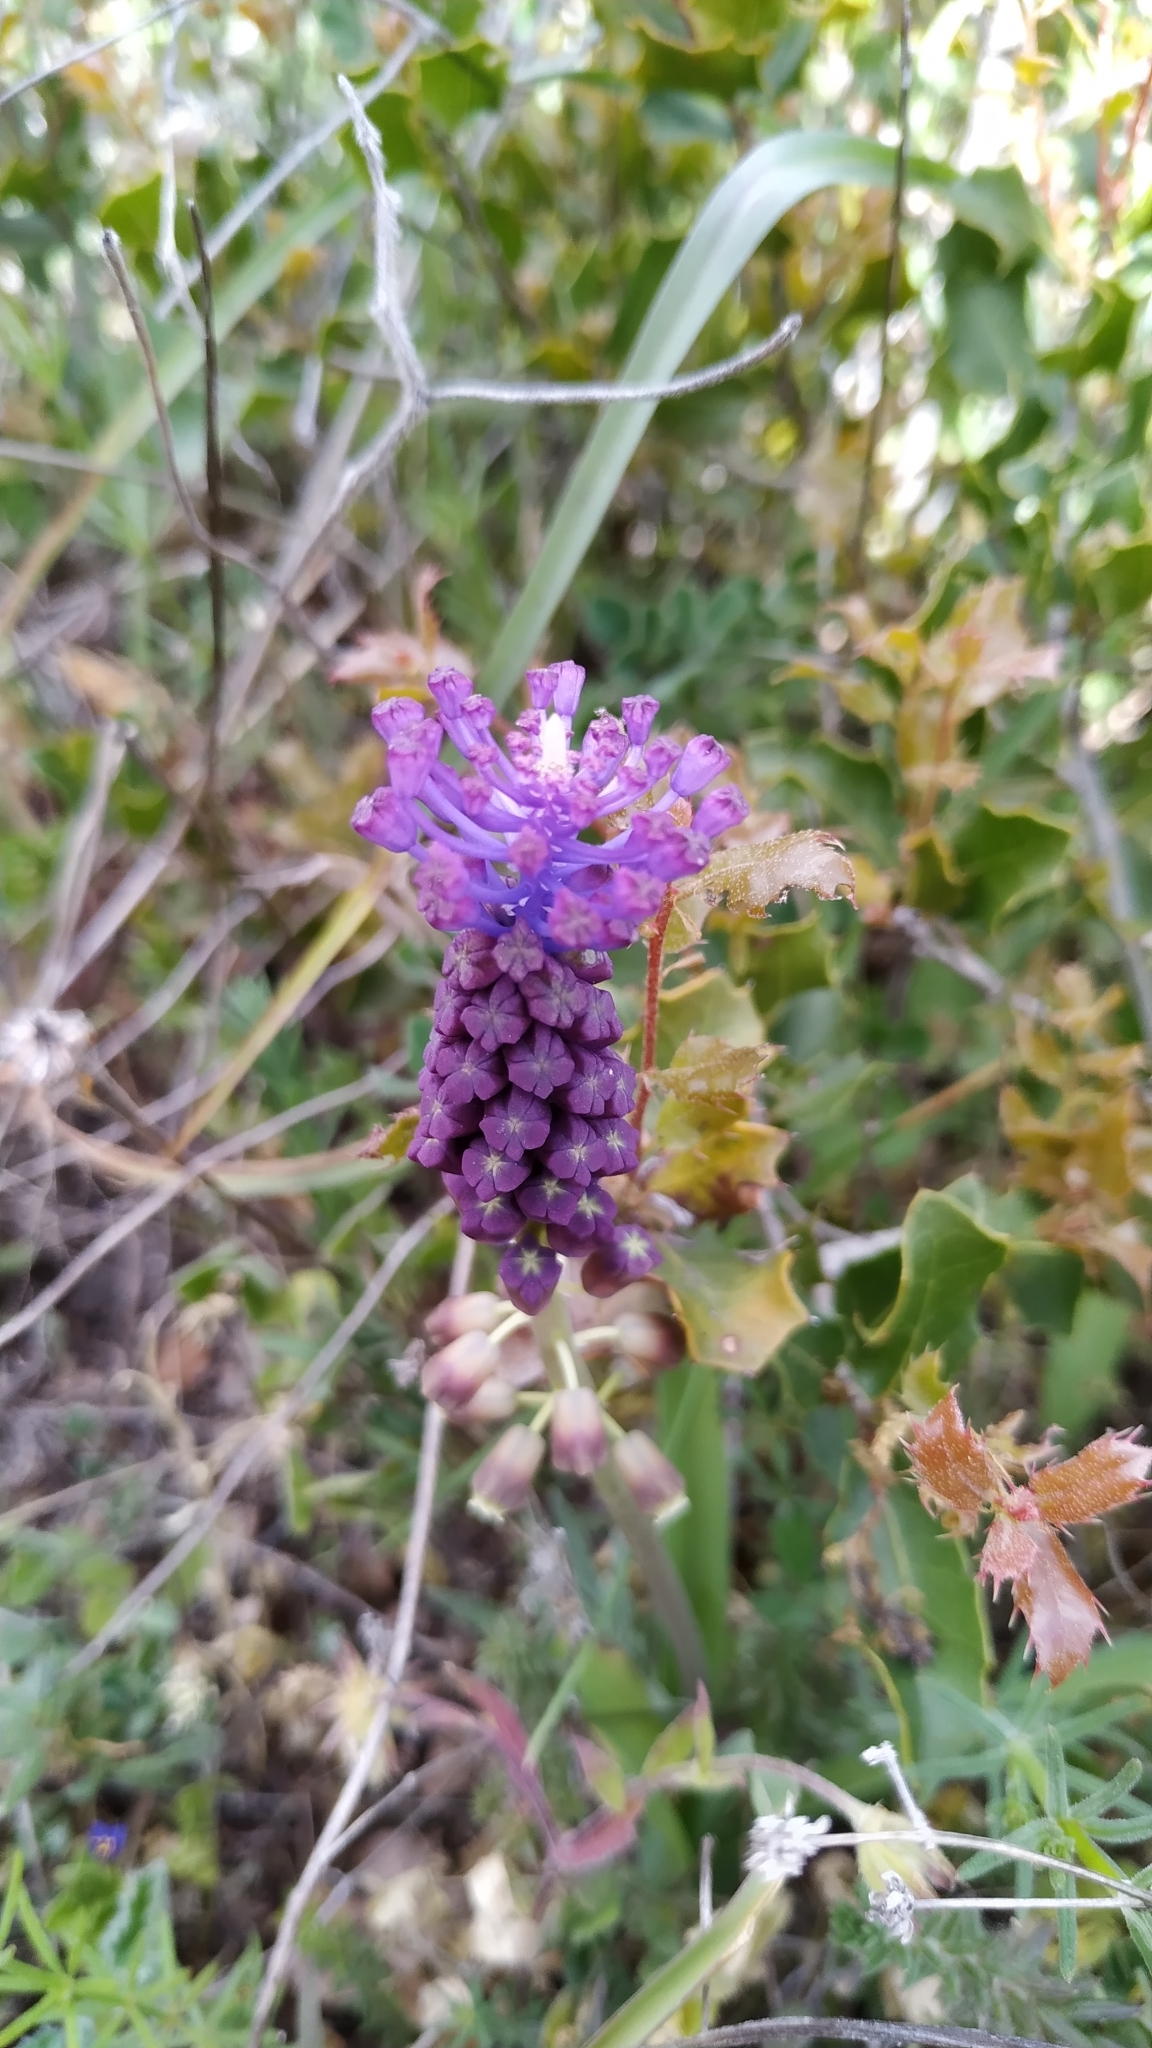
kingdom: Plantae
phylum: Tracheophyta
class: Liliopsida
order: Asparagales
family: Asparagaceae
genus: Muscari
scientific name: Muscari comosum
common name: Tassel hyacinth
